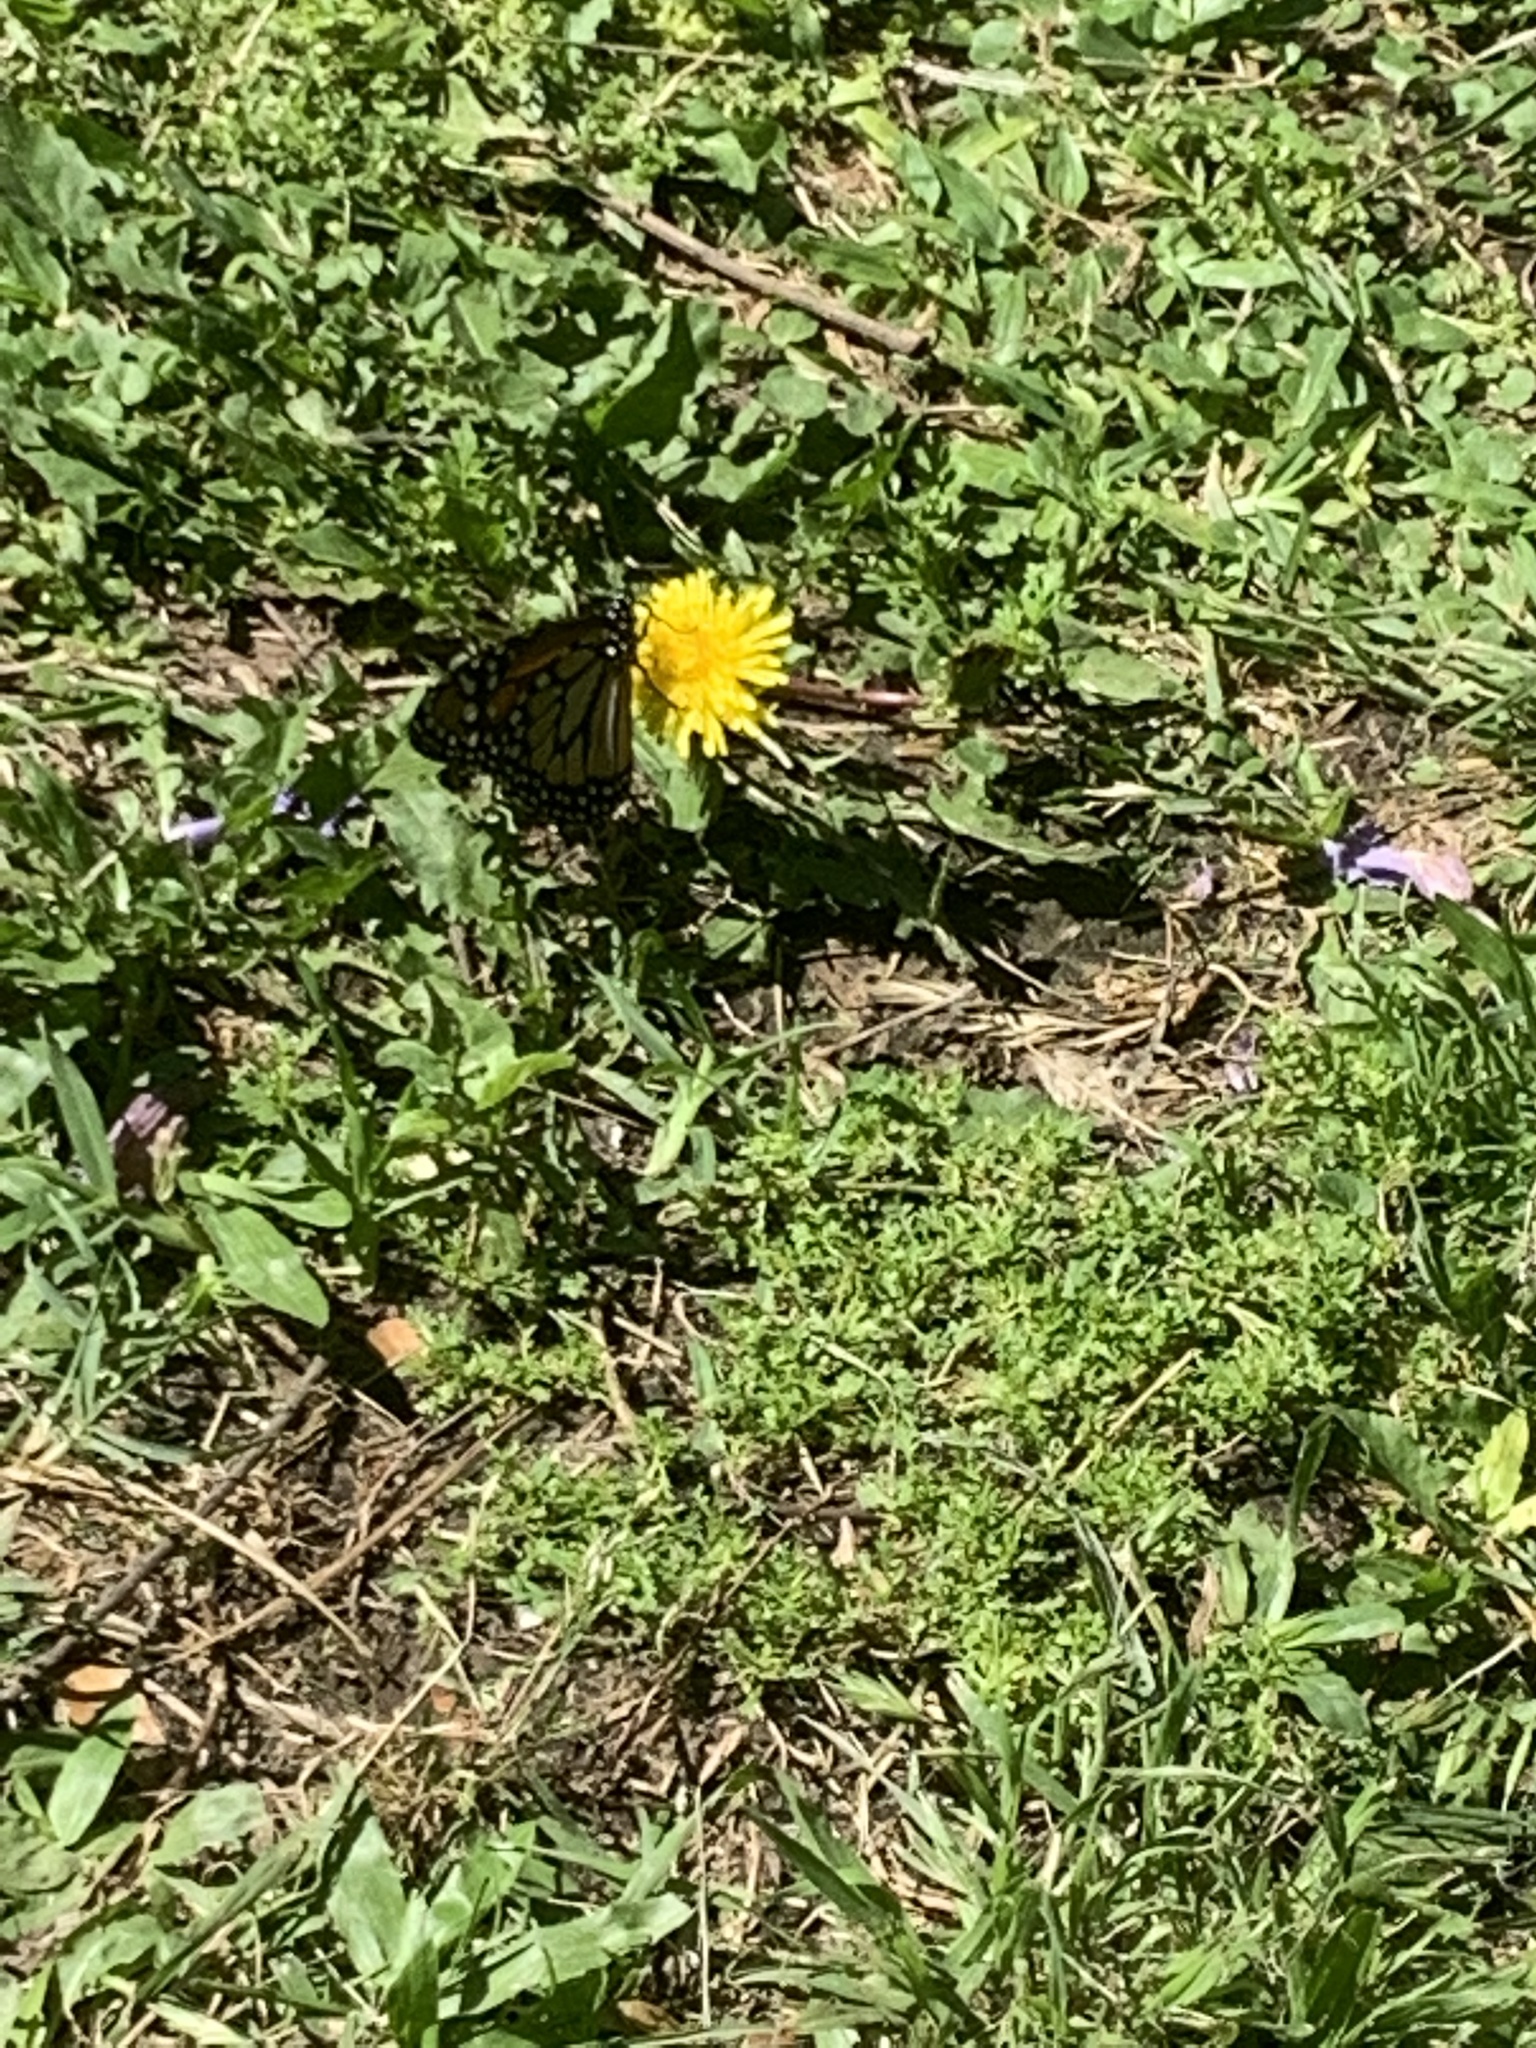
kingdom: Animalia
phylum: Arthropoda
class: Insecta
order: Lepidoptera
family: Nymphalidae
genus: Danaus
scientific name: Danaus erippus
